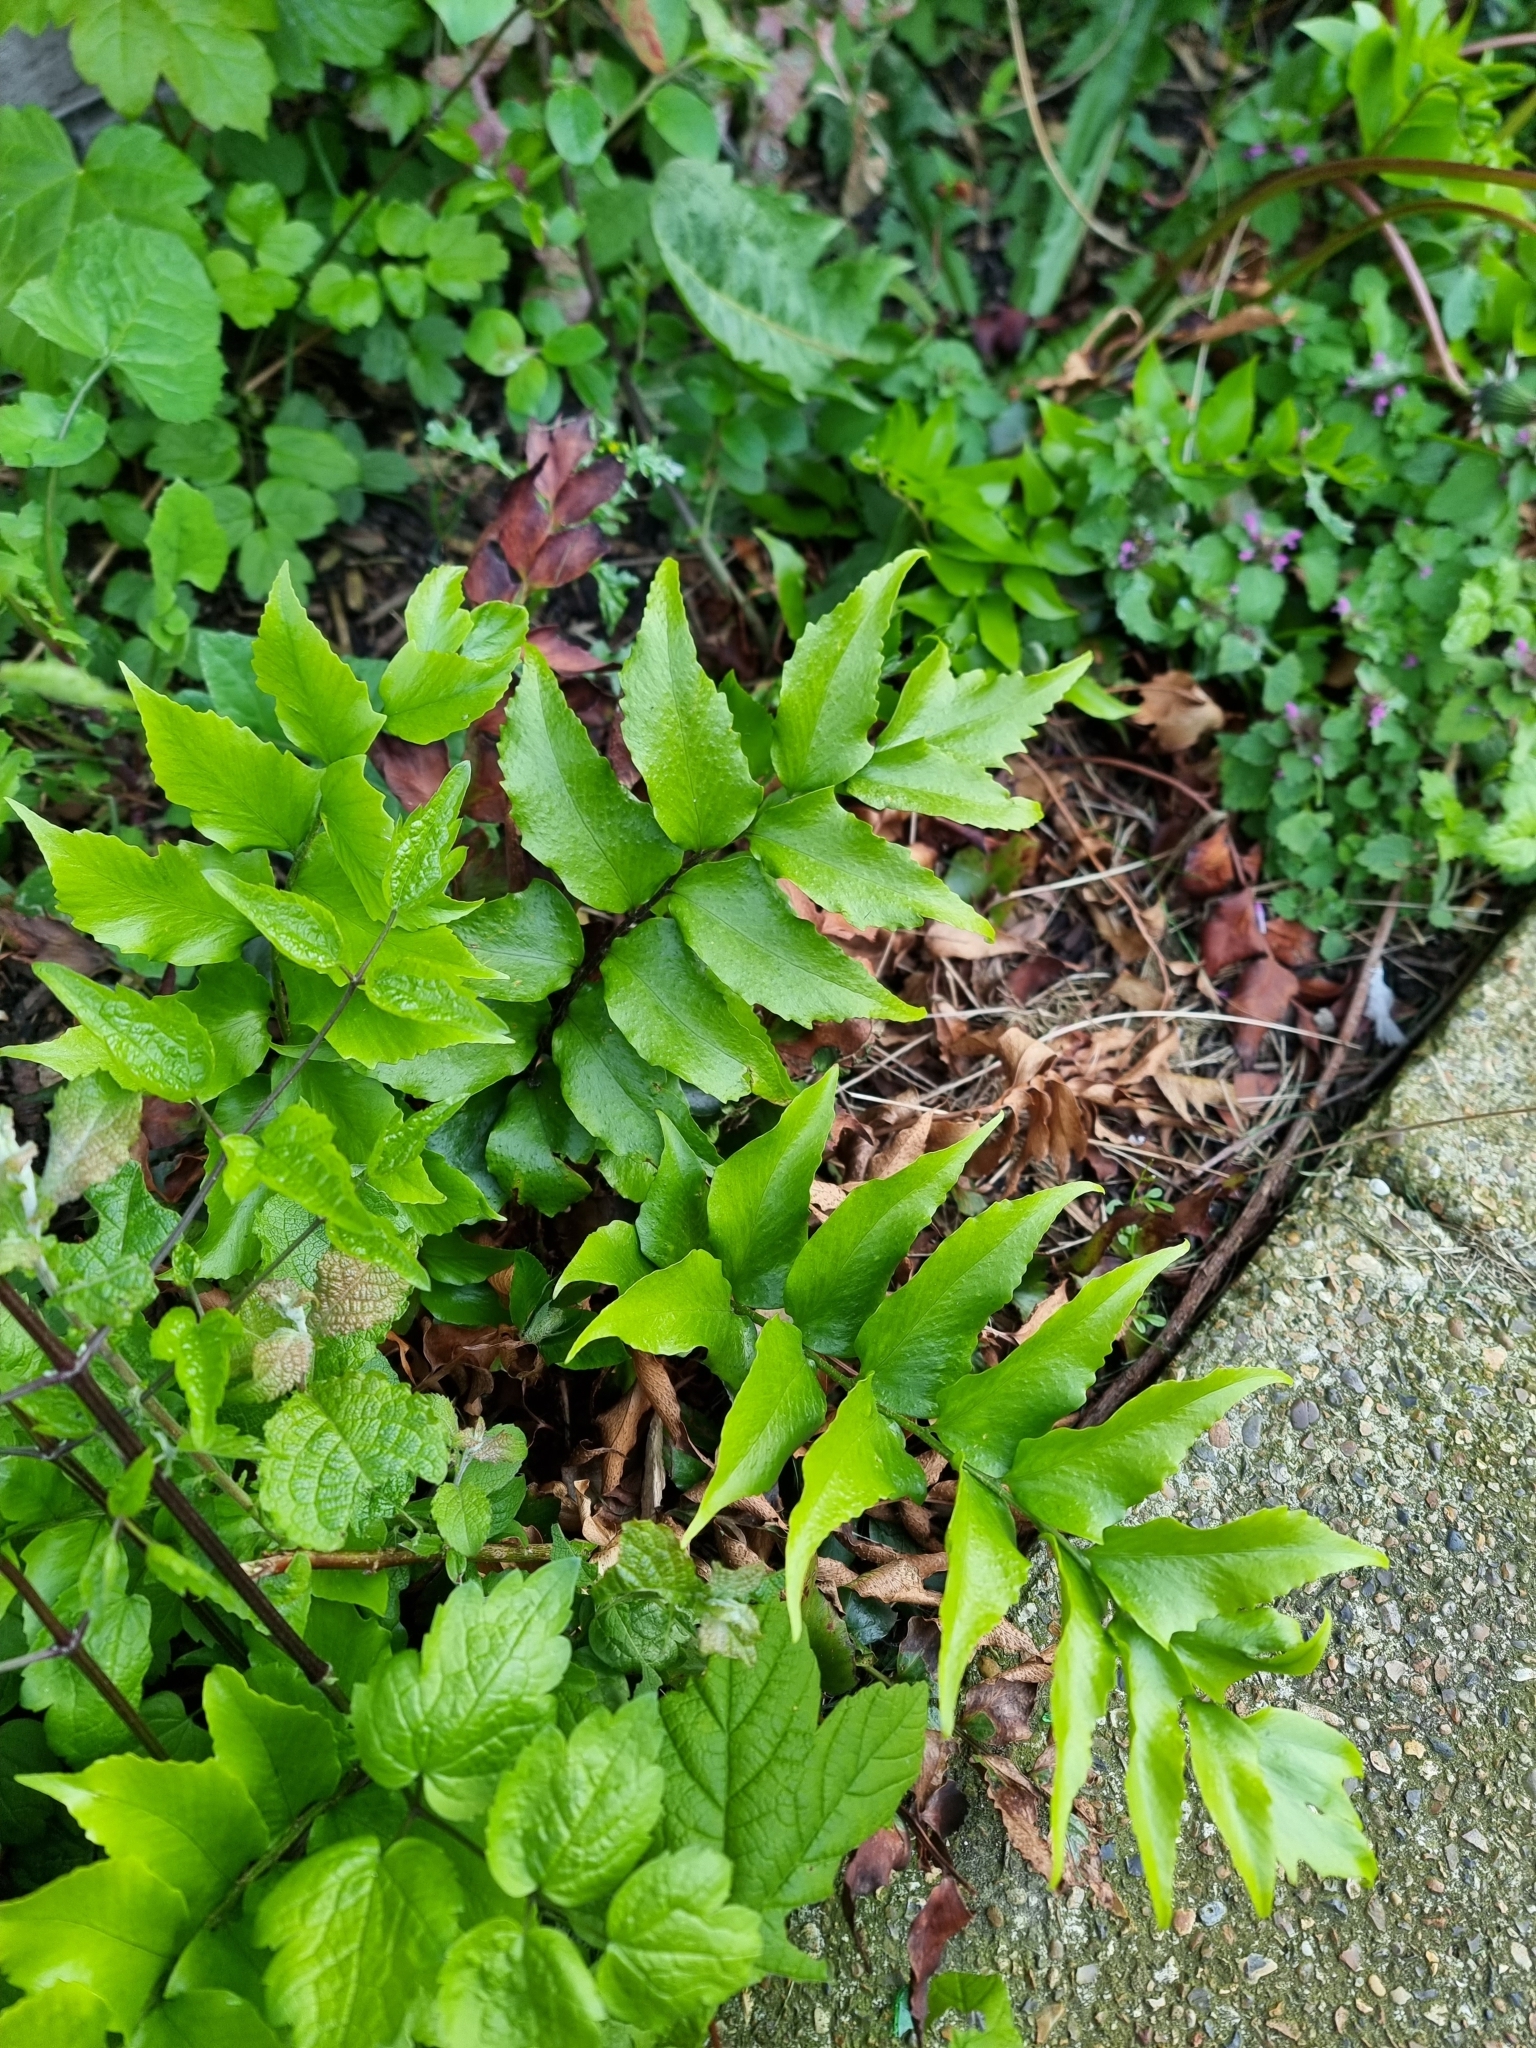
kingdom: Plantae
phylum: Tracheophyta
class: Polypodiopsida
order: Polypodiales
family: Dryopteridaceae
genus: Cyrtomium
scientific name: Cyrtomium falcatum
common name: House holly-fern
